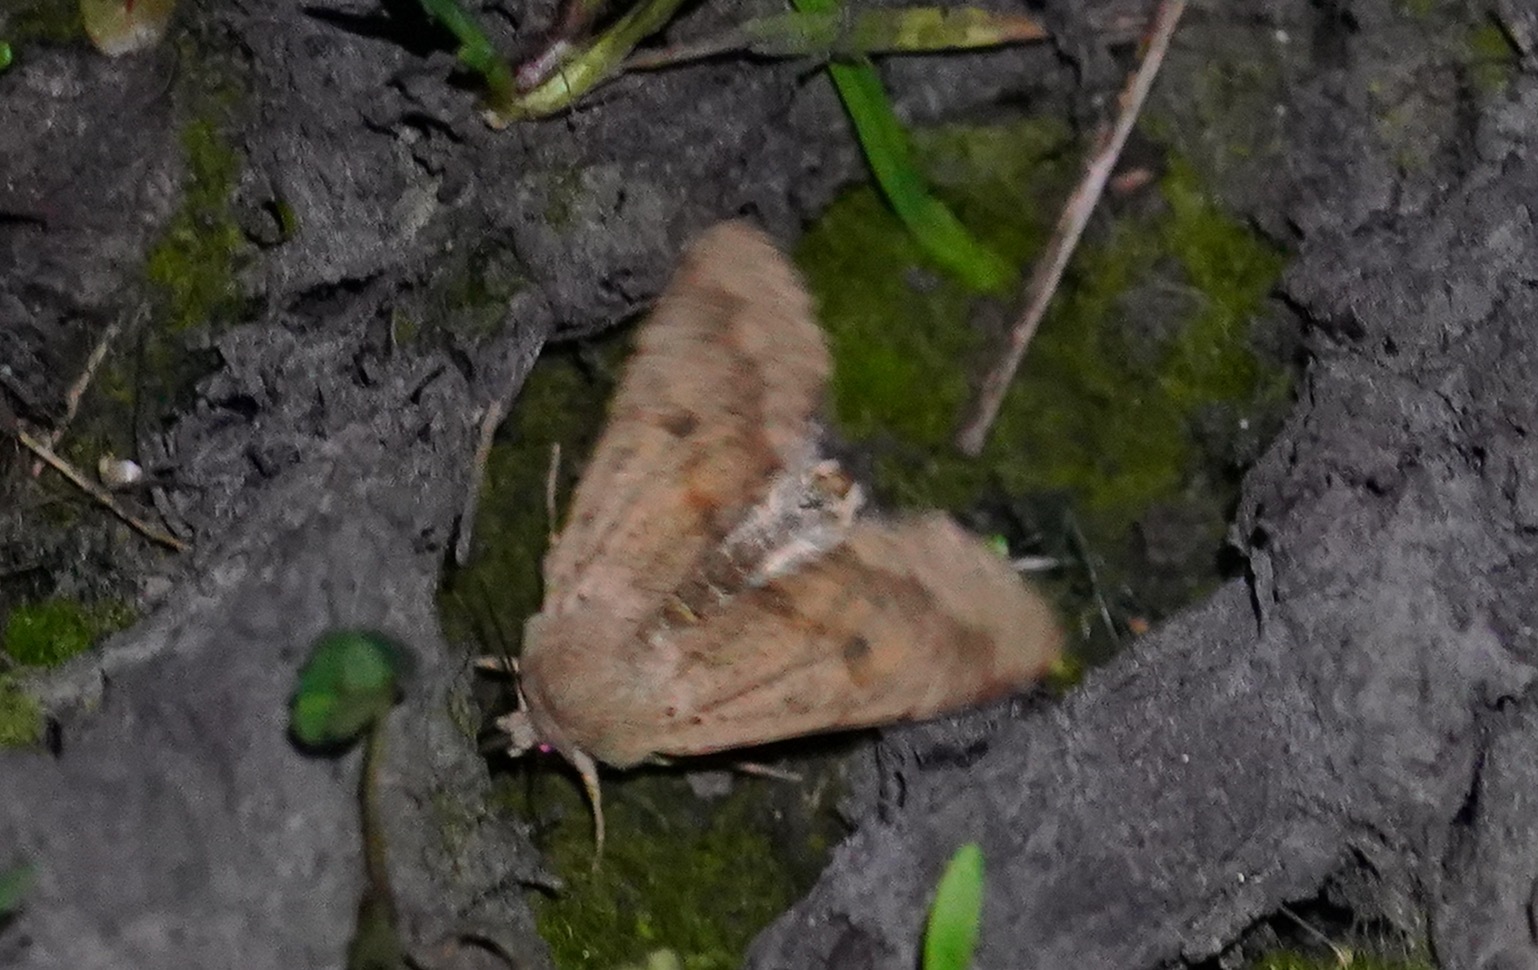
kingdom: Animalia
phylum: Arthropoda
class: Insecta
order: Lepidoptera
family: Noctuidae
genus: Orthosia
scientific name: Orthosia pacifica
